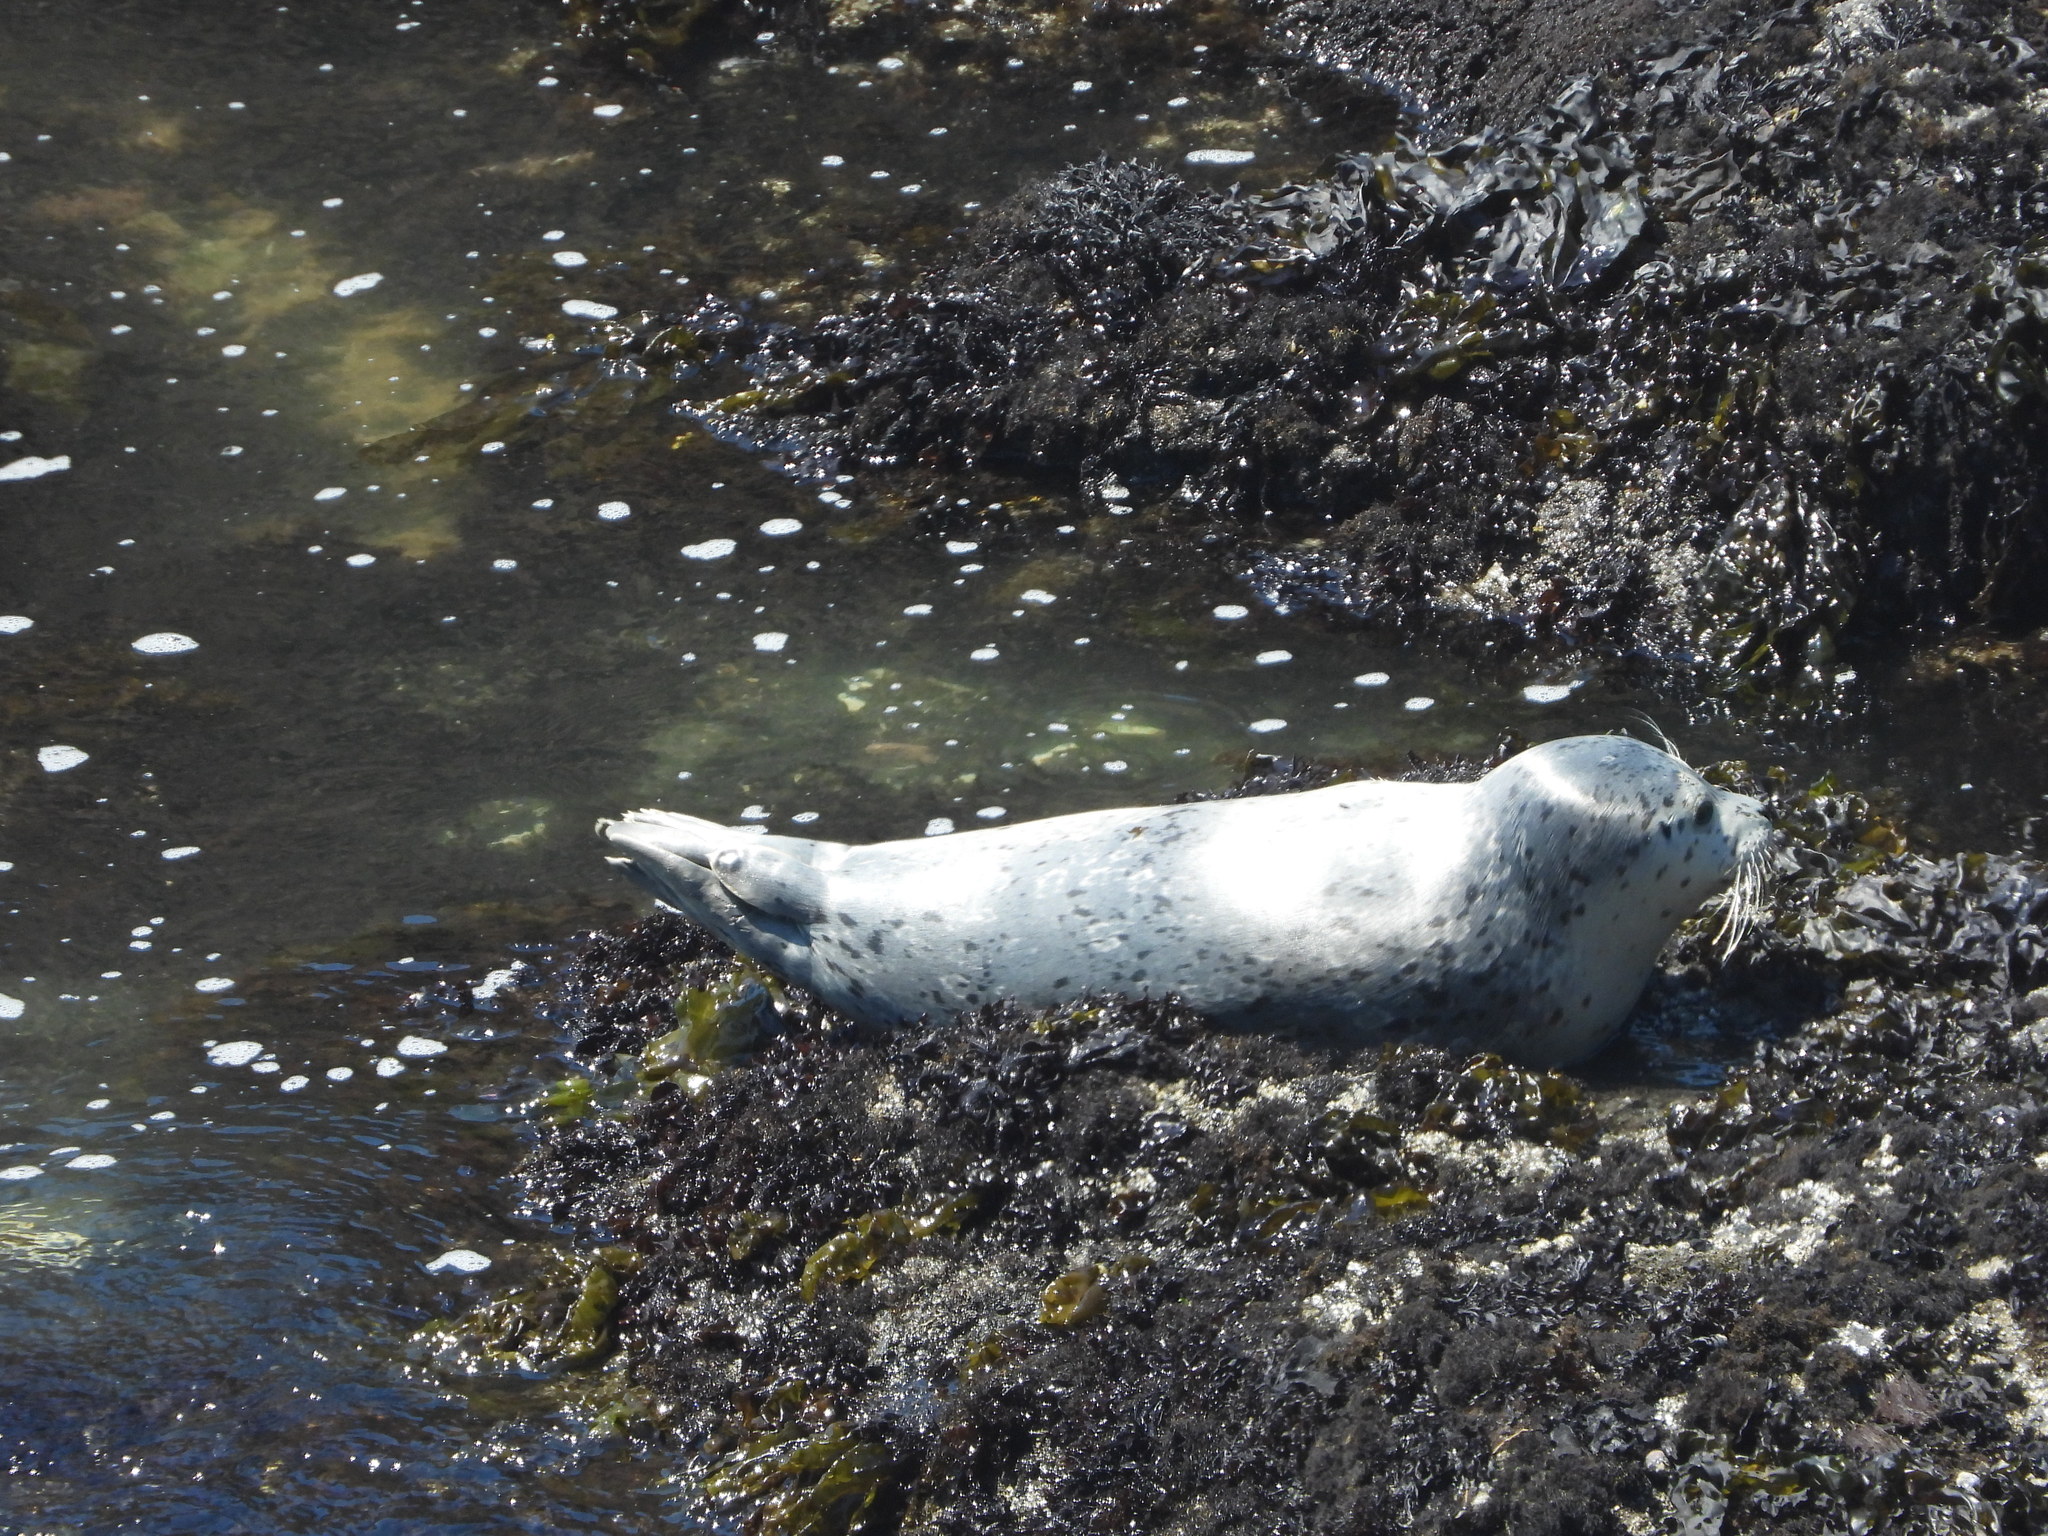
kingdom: Animalia
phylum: Chordata
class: Mammalia
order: Carnivora
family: Phocidae
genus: Phoca
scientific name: Phoca vitulina
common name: Harbor seal
